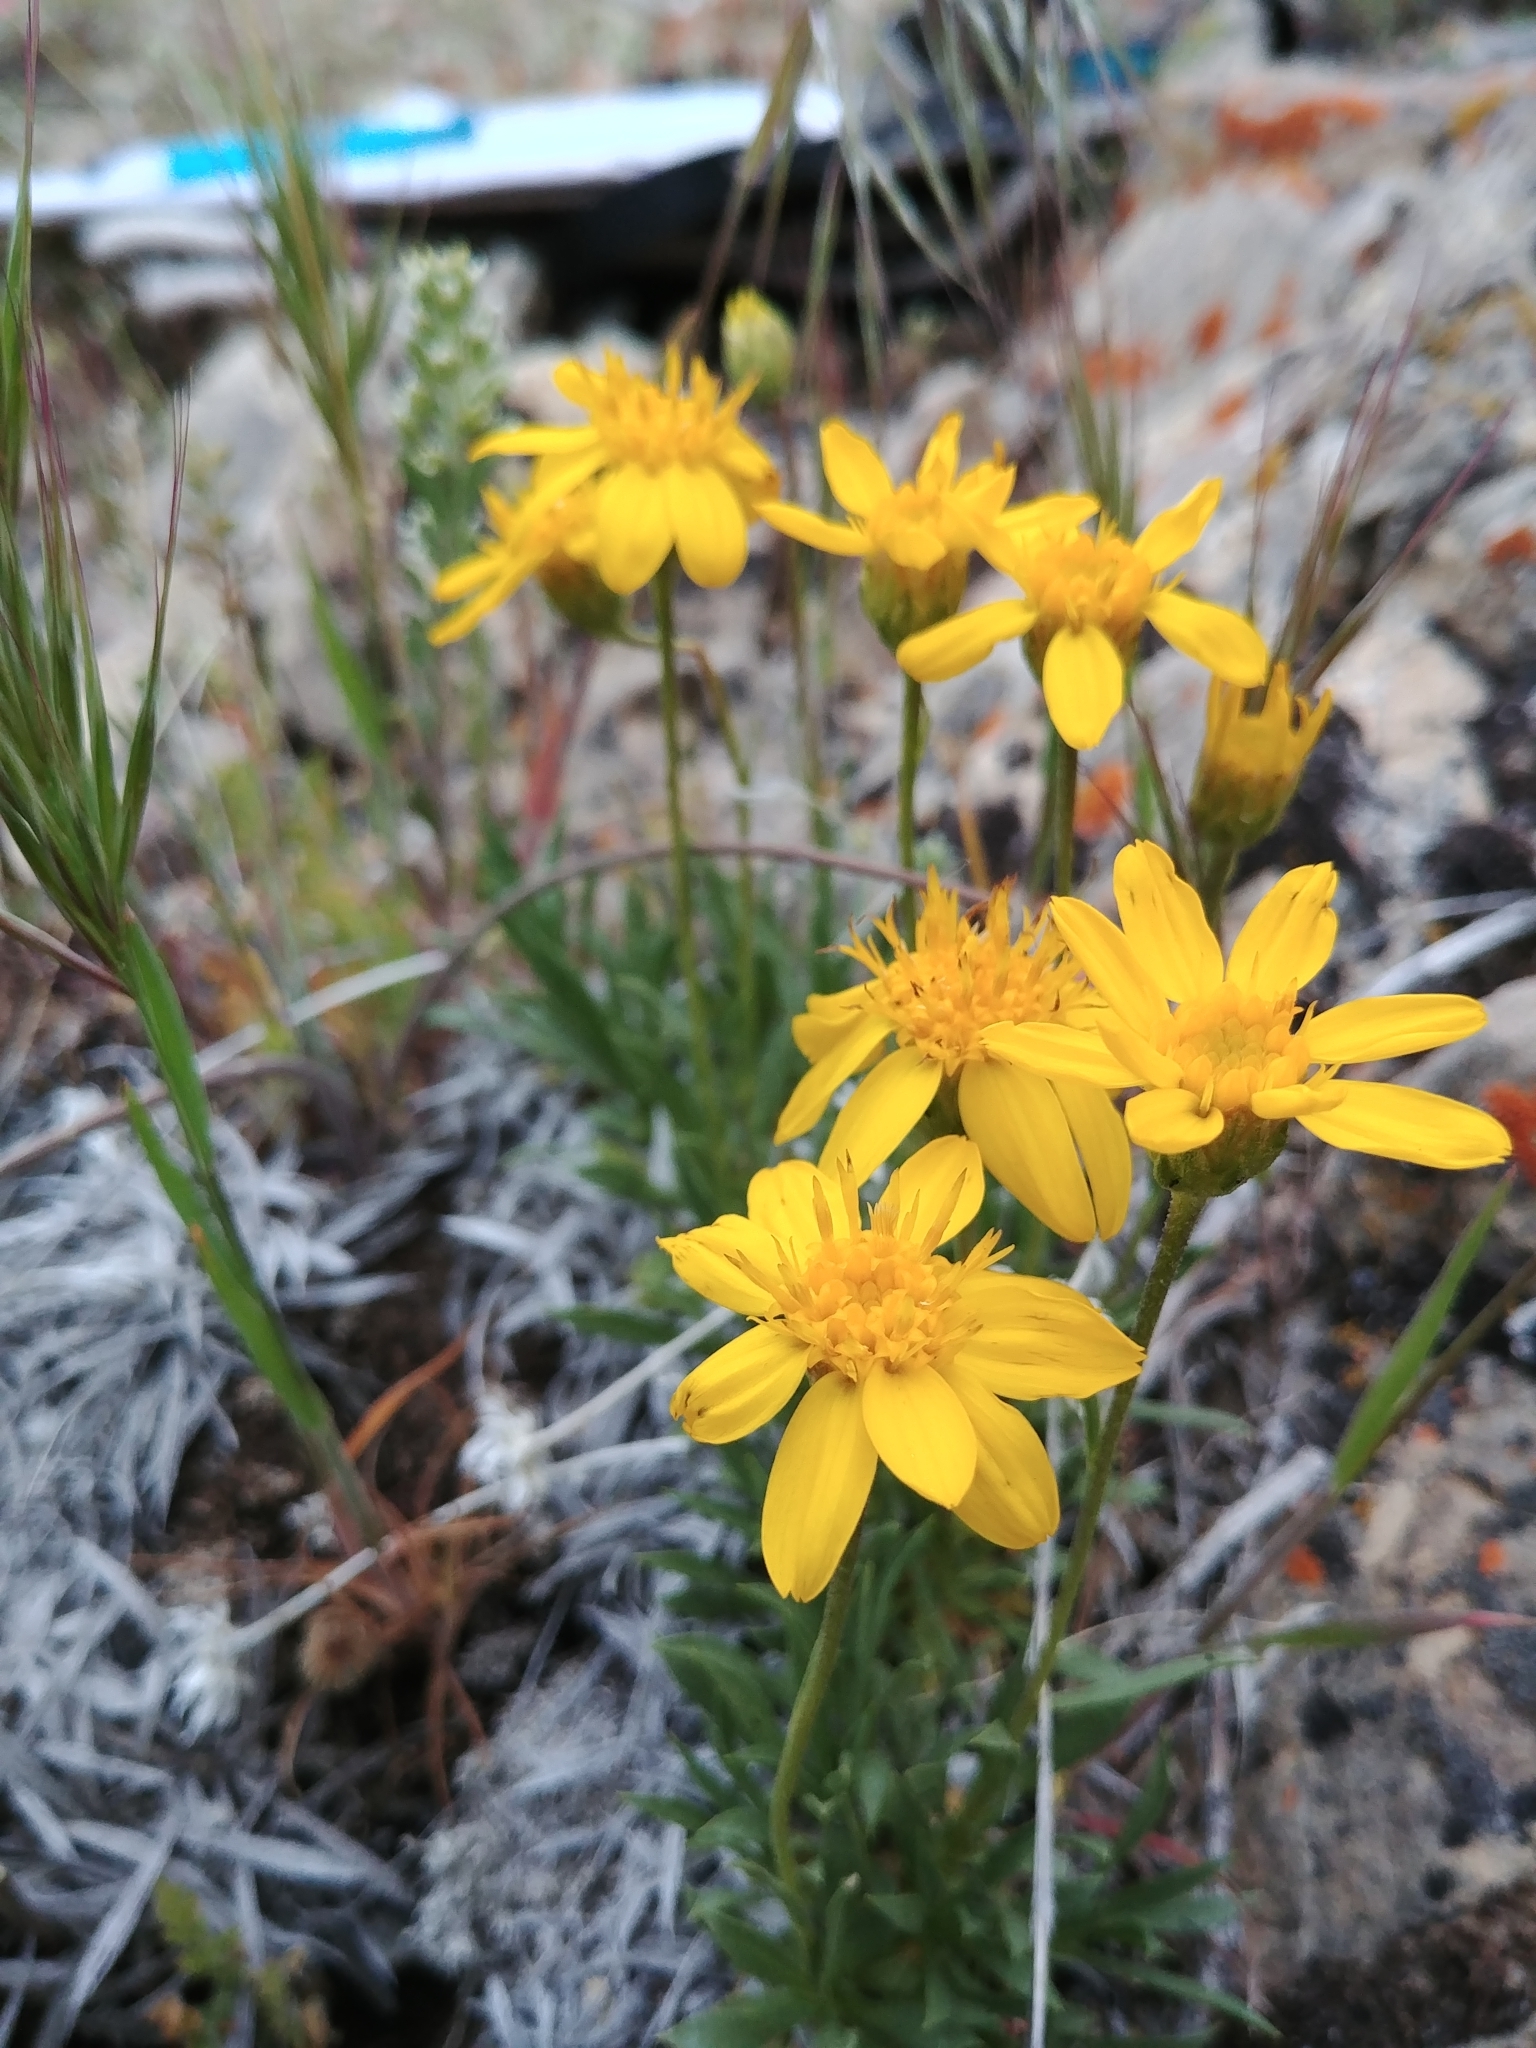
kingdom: Plantae
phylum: Tracheophyta
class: Magnoliopsida
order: Asterales
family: Asteraceae
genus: Stenotus
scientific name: Stenotus acaulis
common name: Stemless goldenweed
